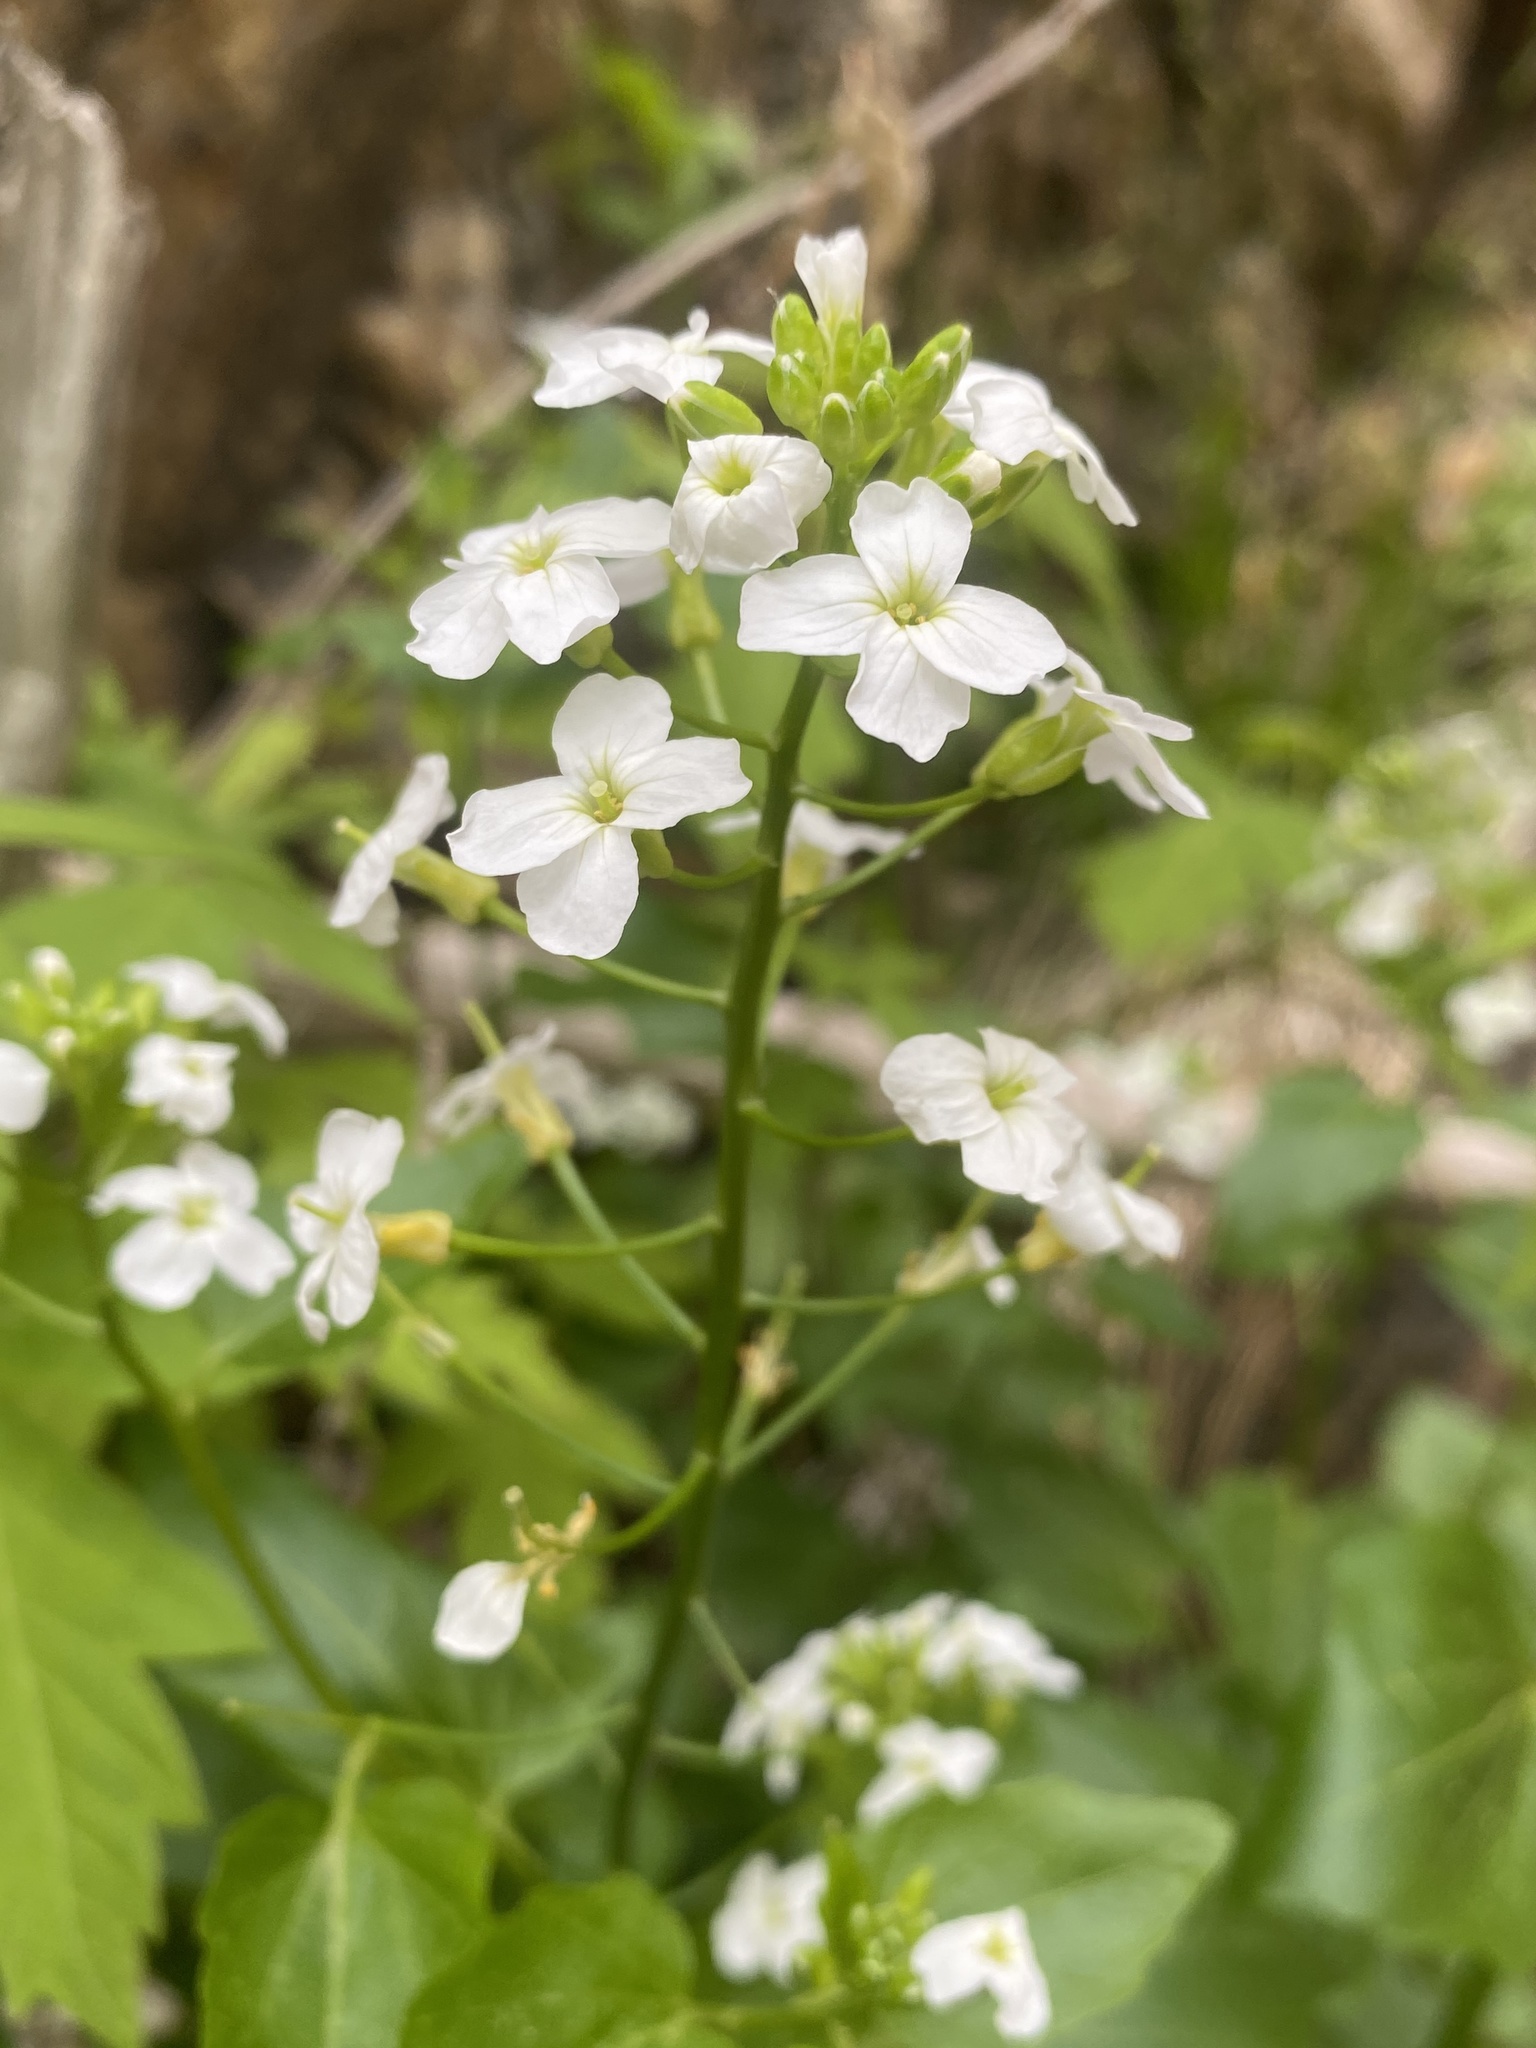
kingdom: Plantae
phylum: Tracheophyta
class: Magnoliopsida
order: Brassicales
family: Brassicaceae
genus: Cardamine
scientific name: Cardamine cordifolia
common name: Heart-leaf bittercress
